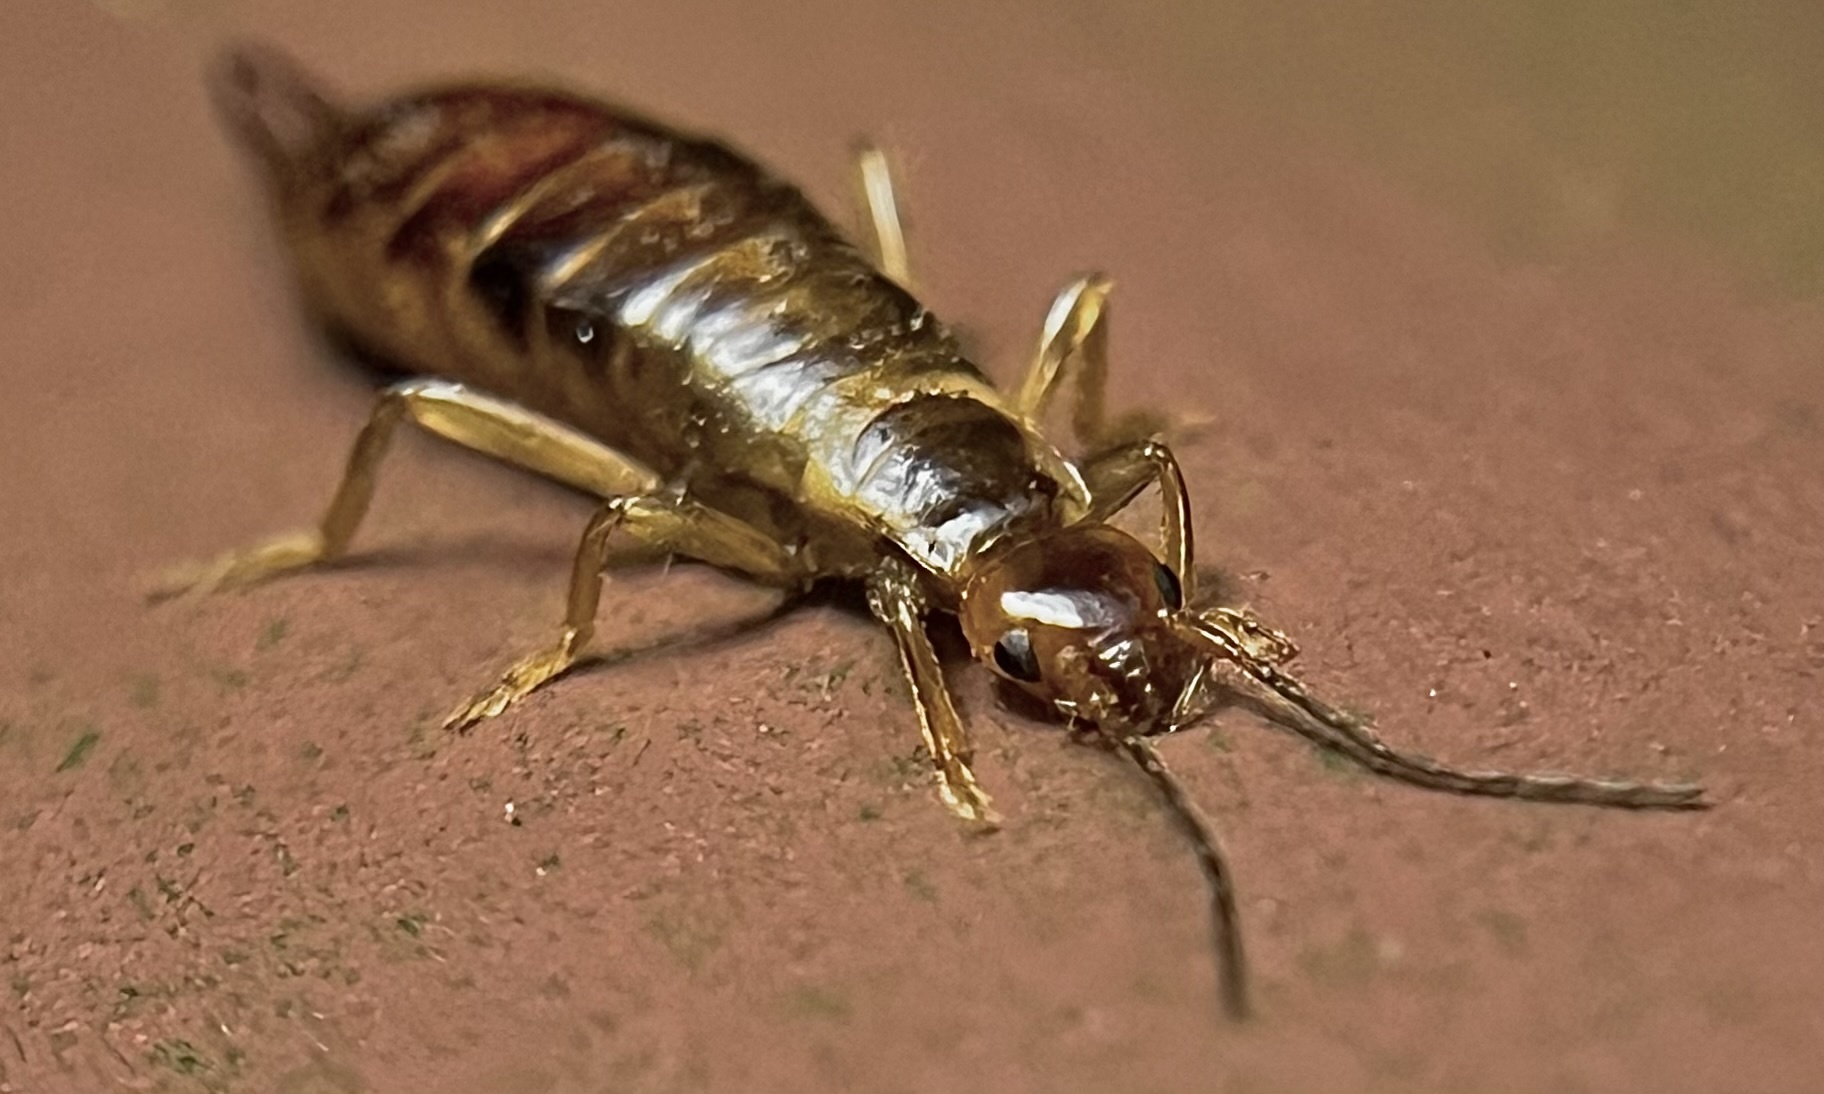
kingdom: Animalia
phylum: Arthropoda
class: Insecta
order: Dermaptera
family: Forficulidae
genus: Chelidurella
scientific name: Chelidurella acanthopygia
